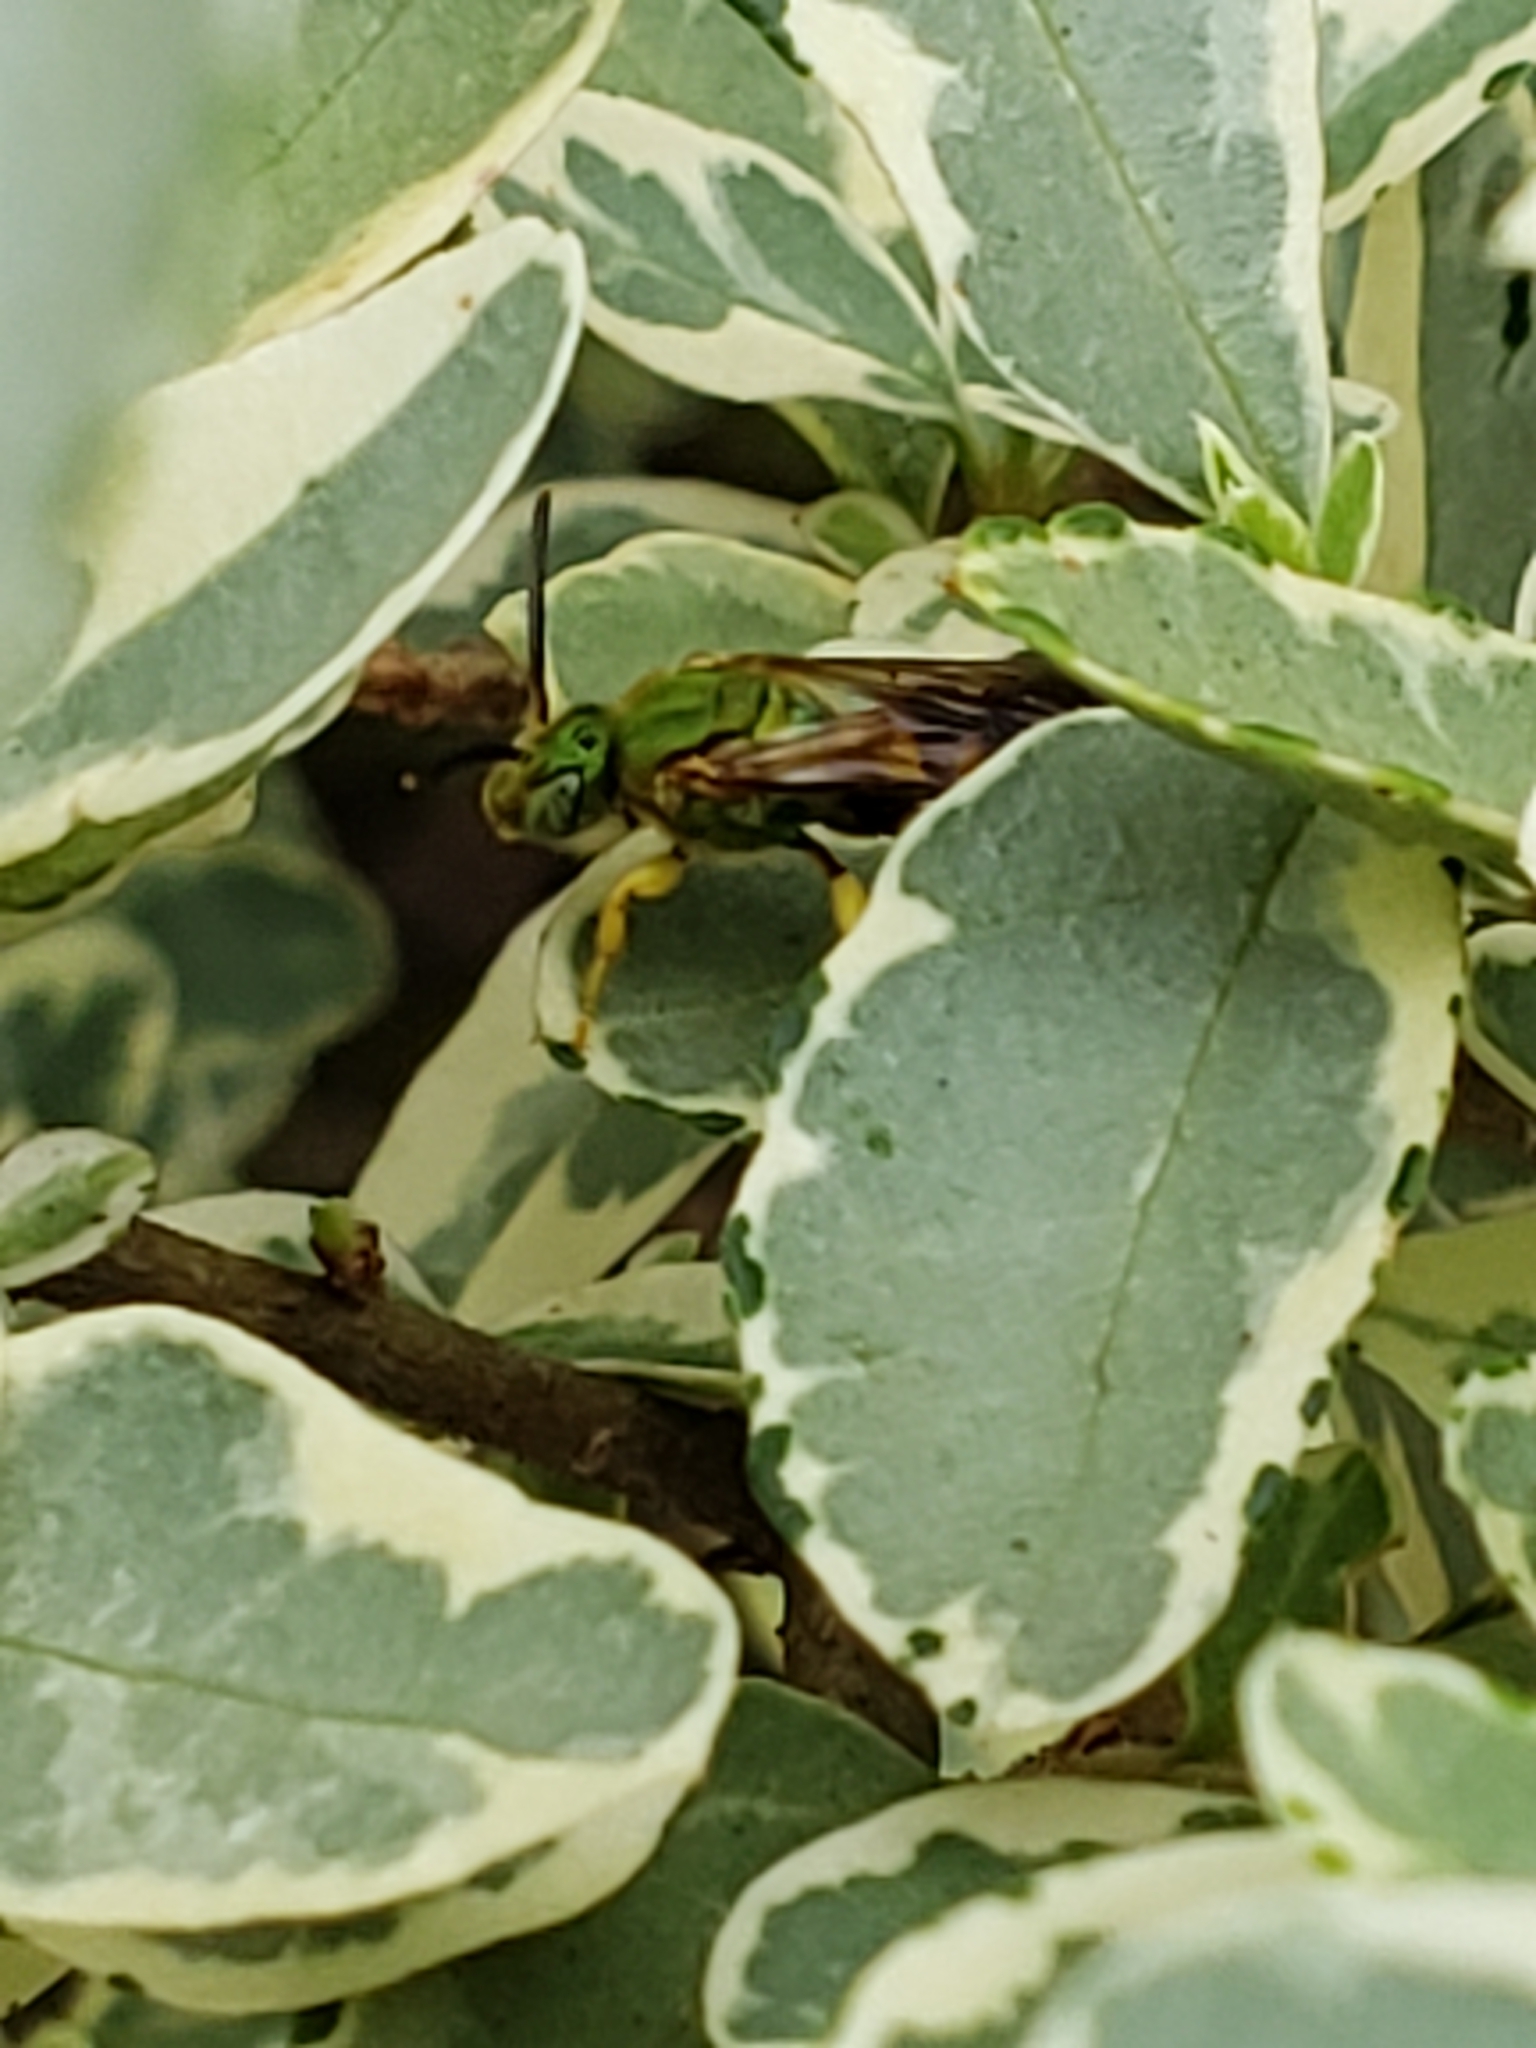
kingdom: Animalia
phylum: Arthropoda
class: Insecta
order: Hymenoptera
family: Halictidae
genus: Agapostemon
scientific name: Agapostemon splendens
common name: Brown-winged striped sweat bee
